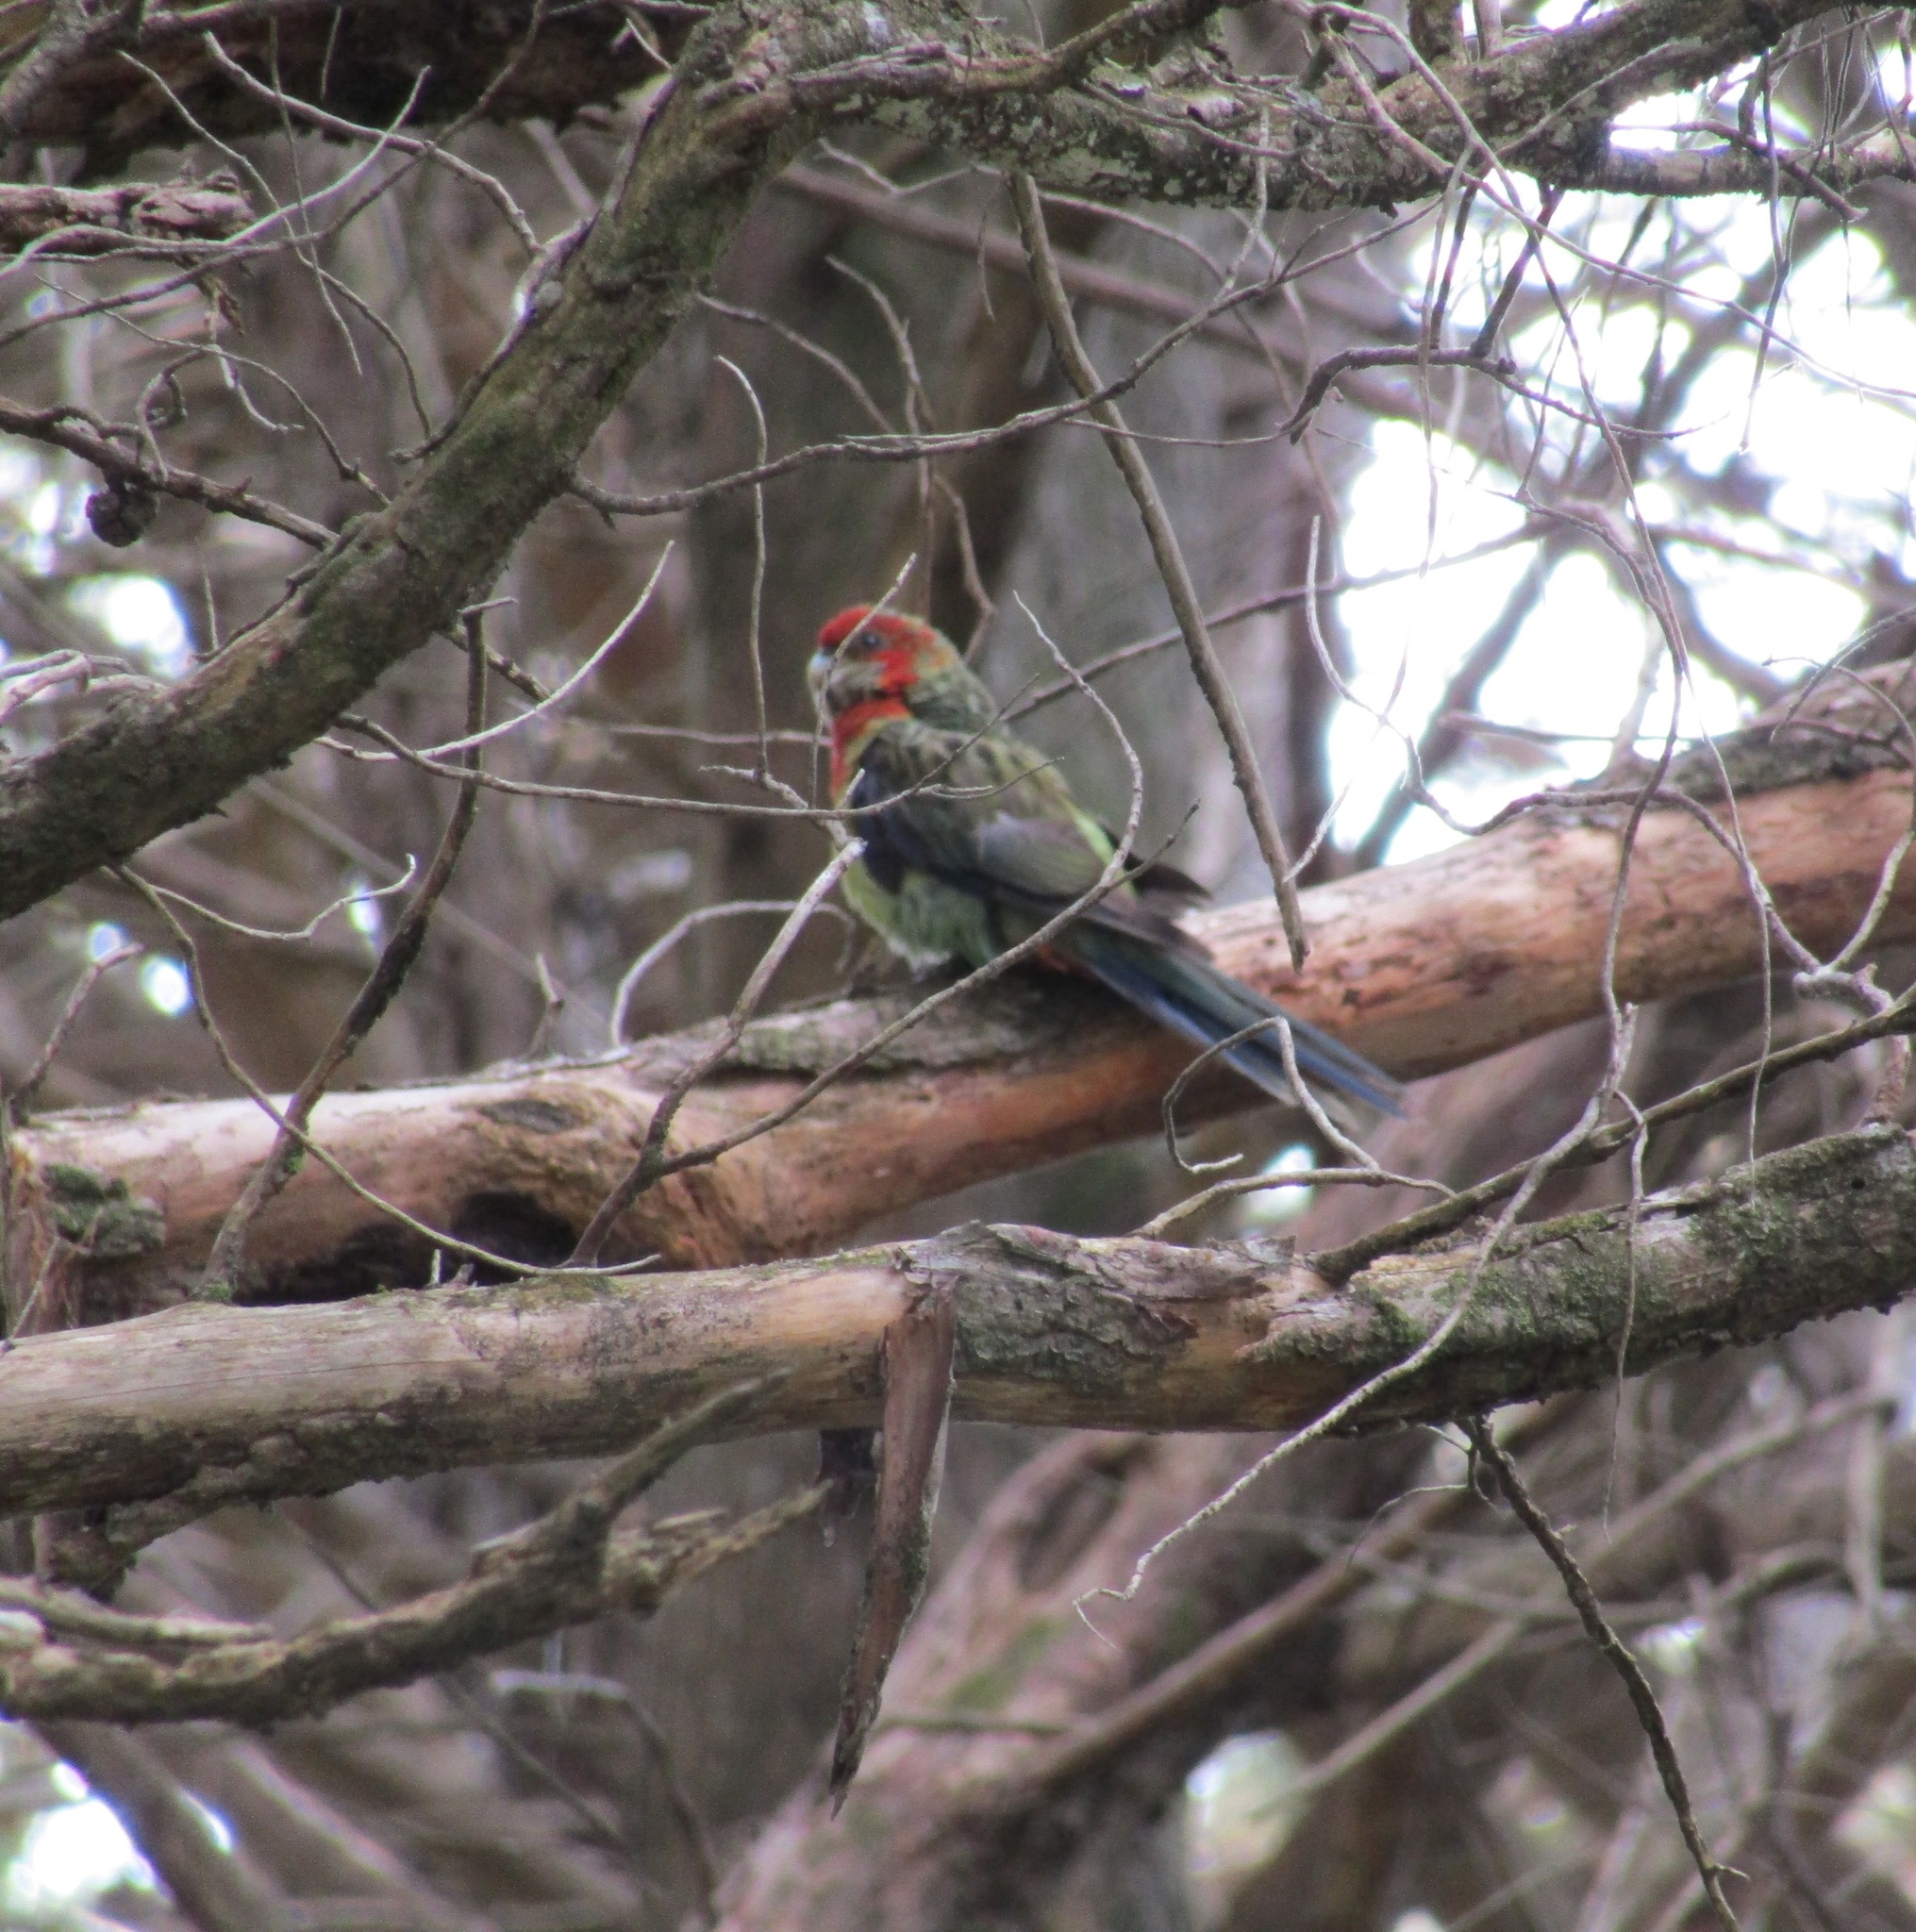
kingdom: Animalia
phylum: Chordata
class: Aves
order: Psittaciformes
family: Psittacidae
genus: Platycercus
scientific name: Platycercus eximius
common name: Eastern rosella
